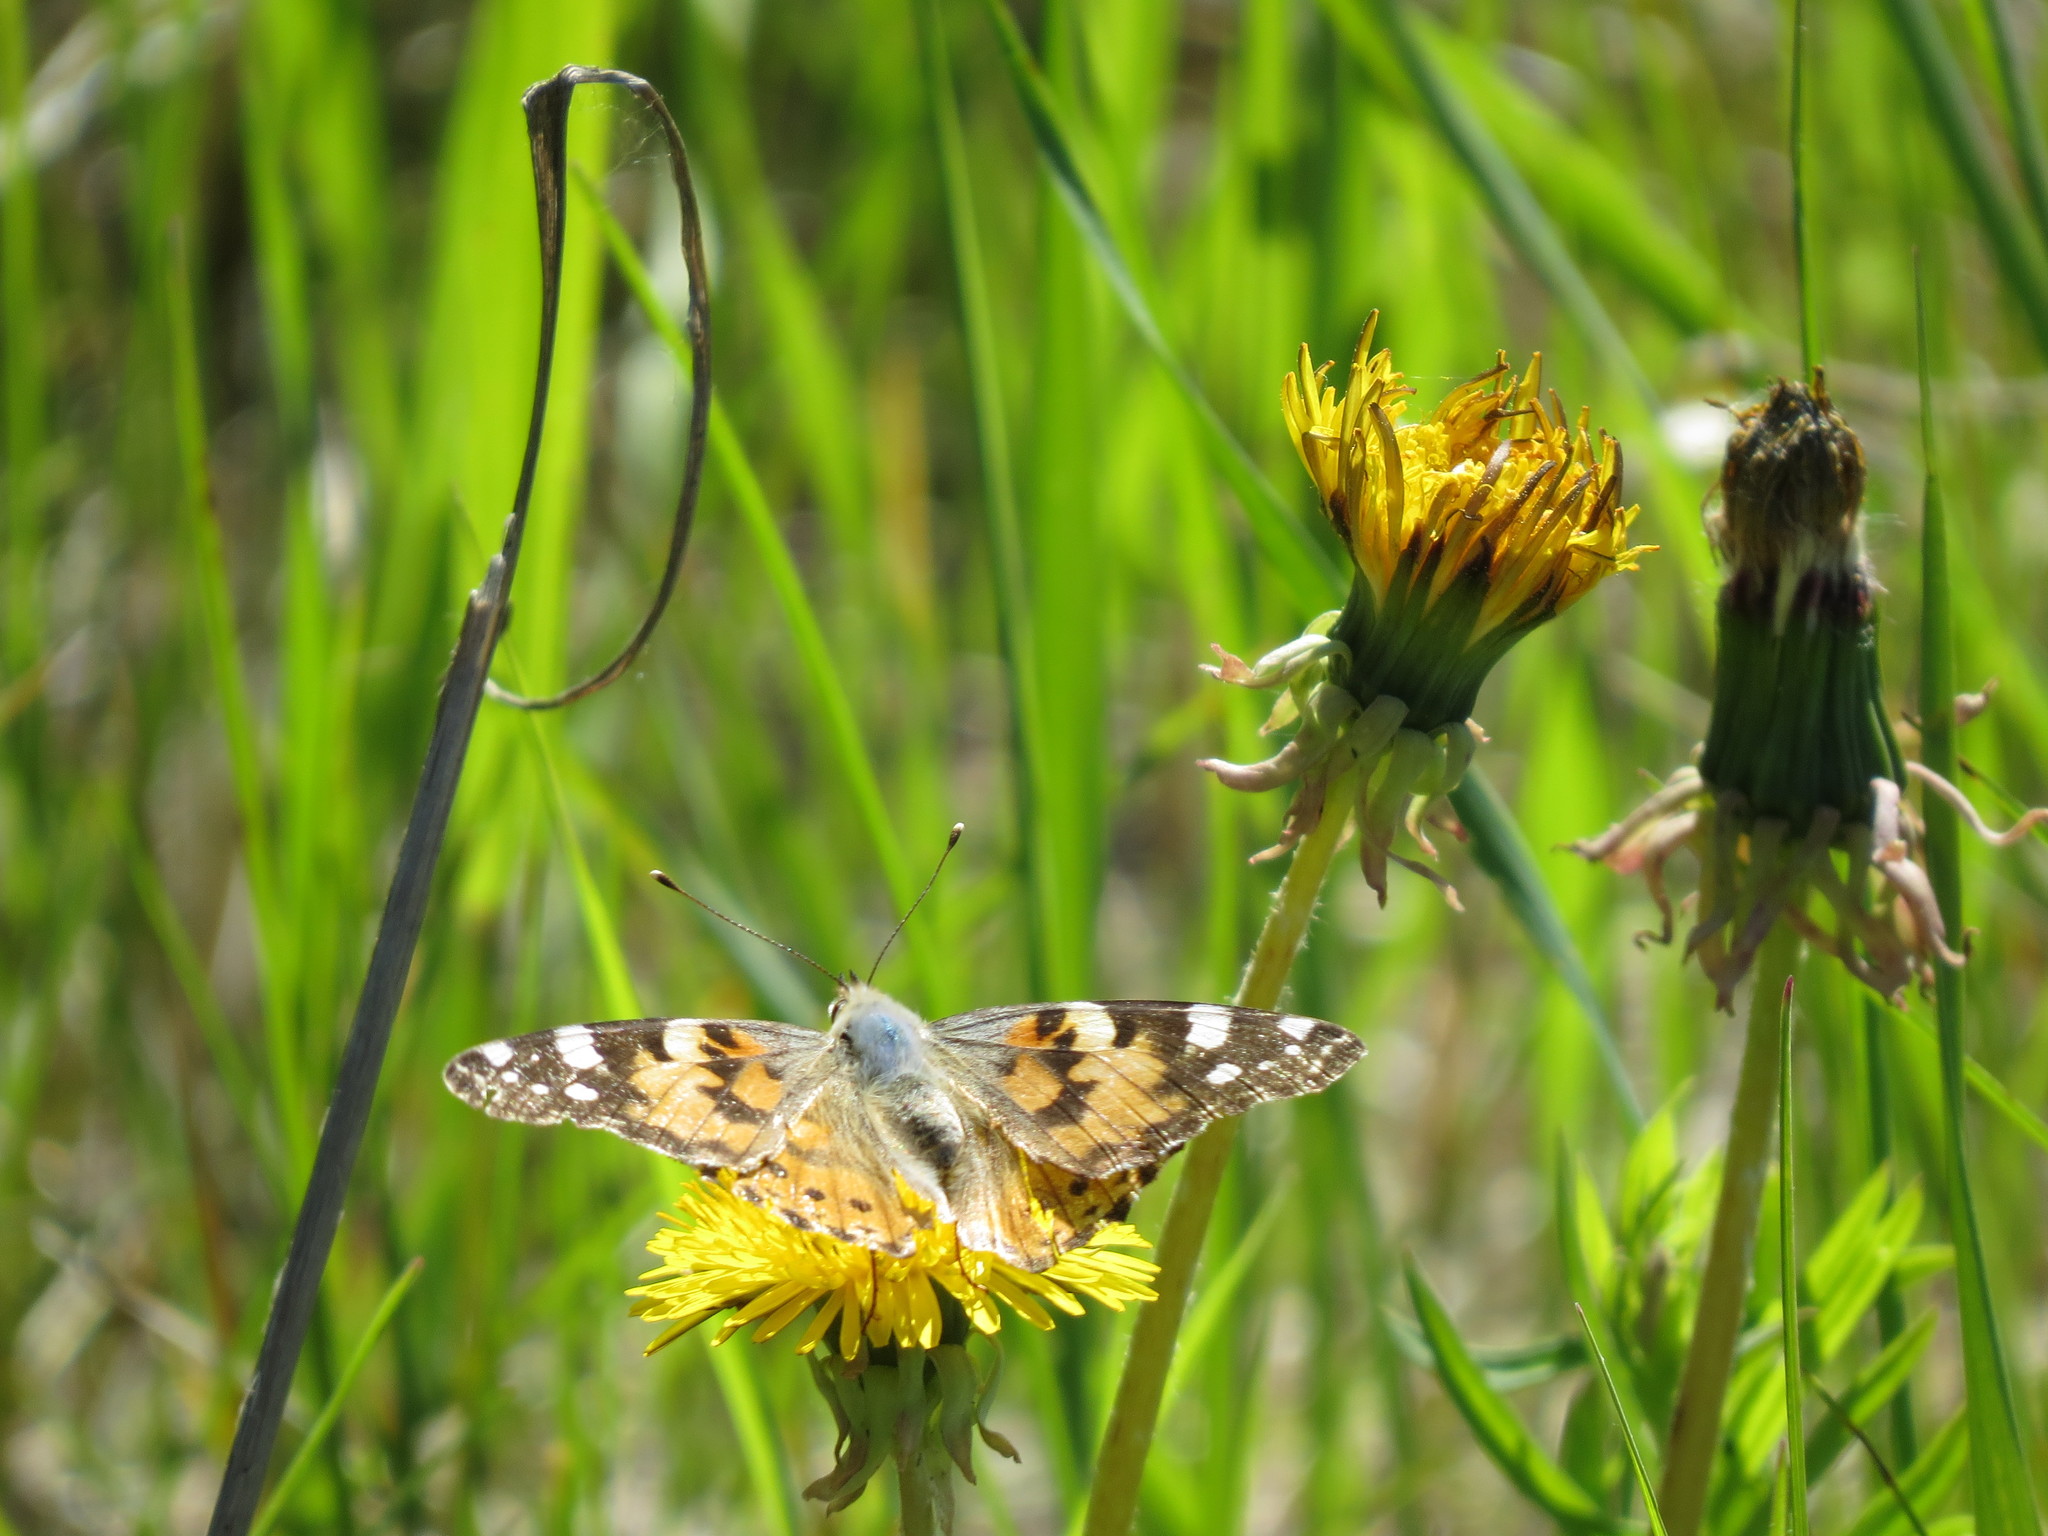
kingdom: Animalia
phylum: Arthropoda
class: Insecta
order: Lepidoptera
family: Nymphalidae
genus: Vanessa
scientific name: Vanessa cardui
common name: Painted lady
